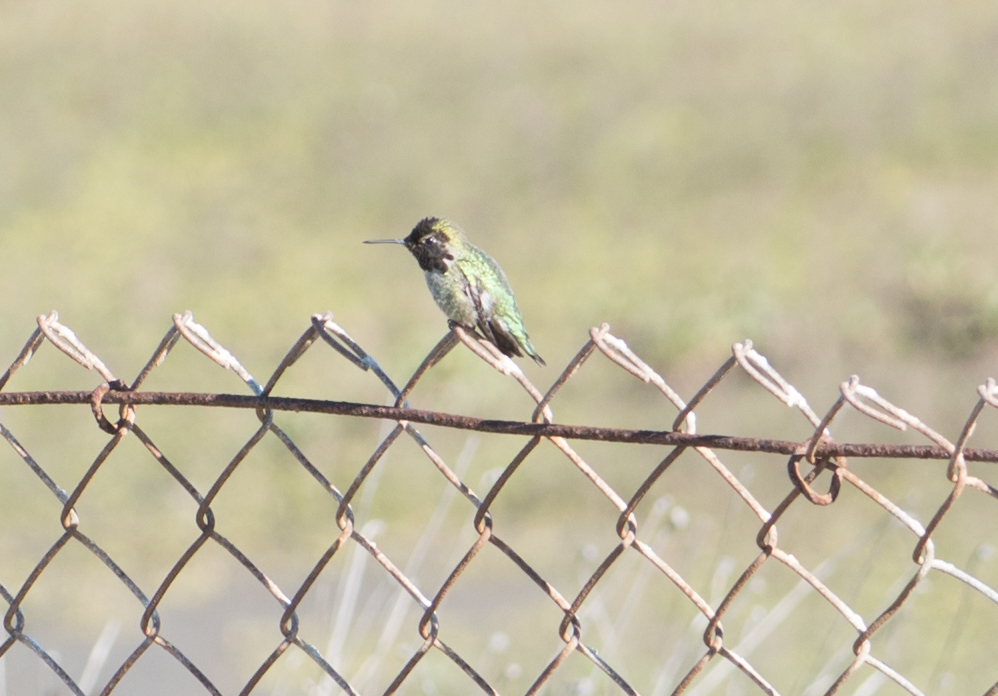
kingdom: Animalia
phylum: Chordata
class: Aves
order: Apodiformes
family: Trochilidae
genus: Calypte
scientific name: Calypte anna
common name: Anna's hummingbird
